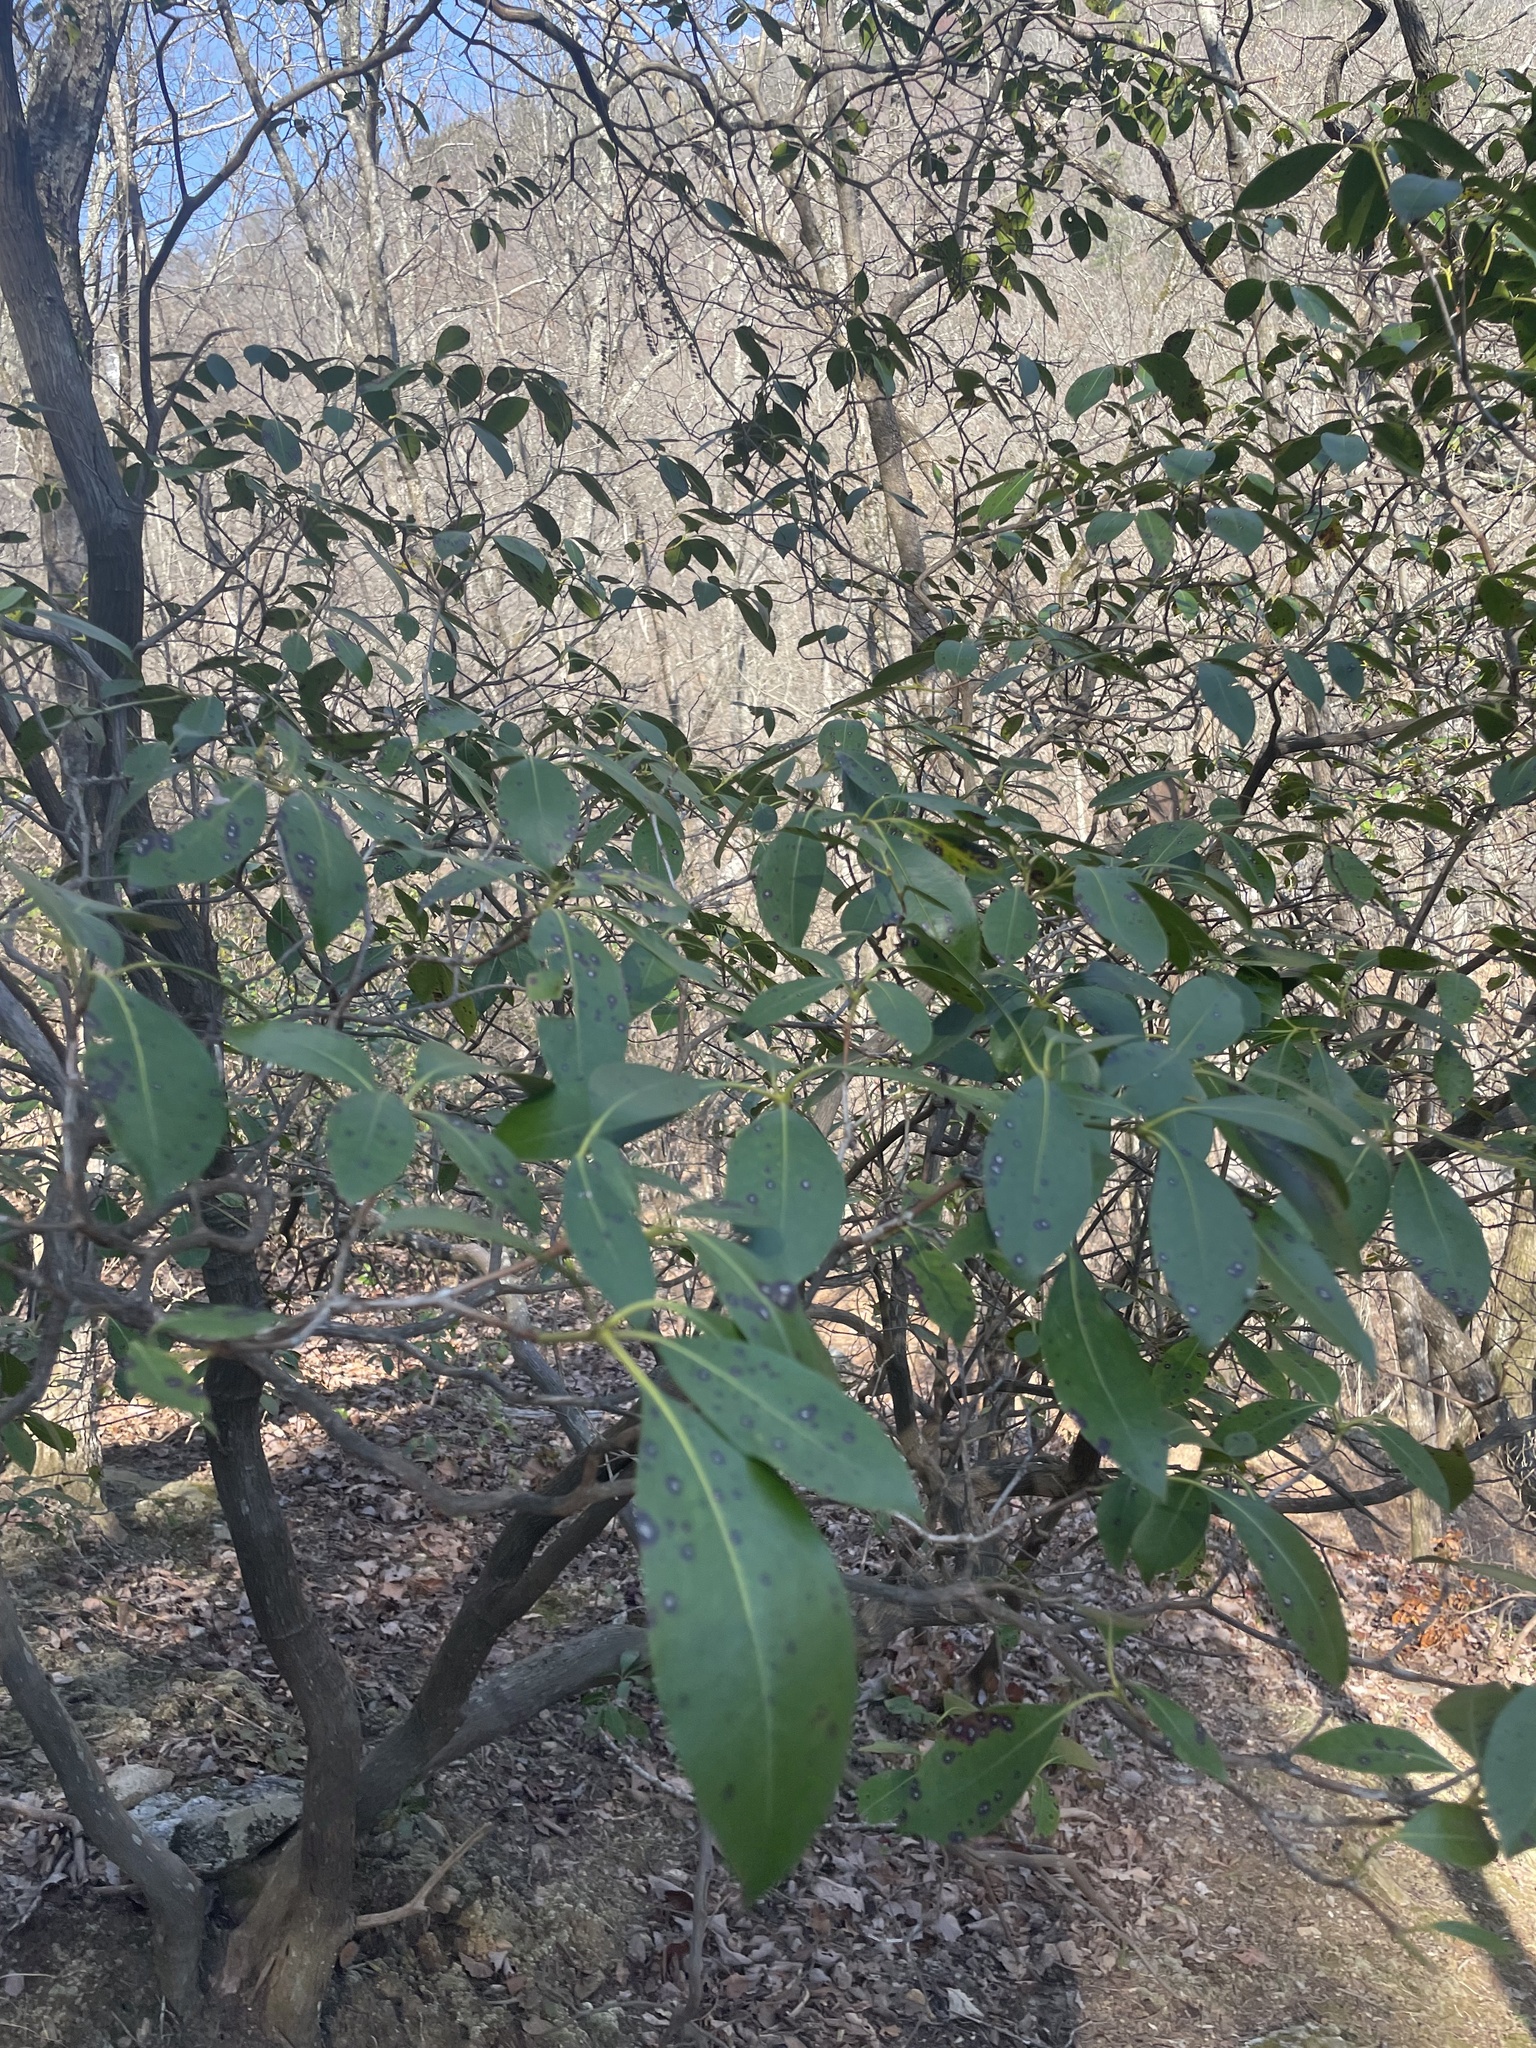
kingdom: Plantae
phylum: Tracheophyta
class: Magnoliopsida
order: Ericales
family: Ericaceae
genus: Kalmia
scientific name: Kalmia latifolia
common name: Mountain-laurel
